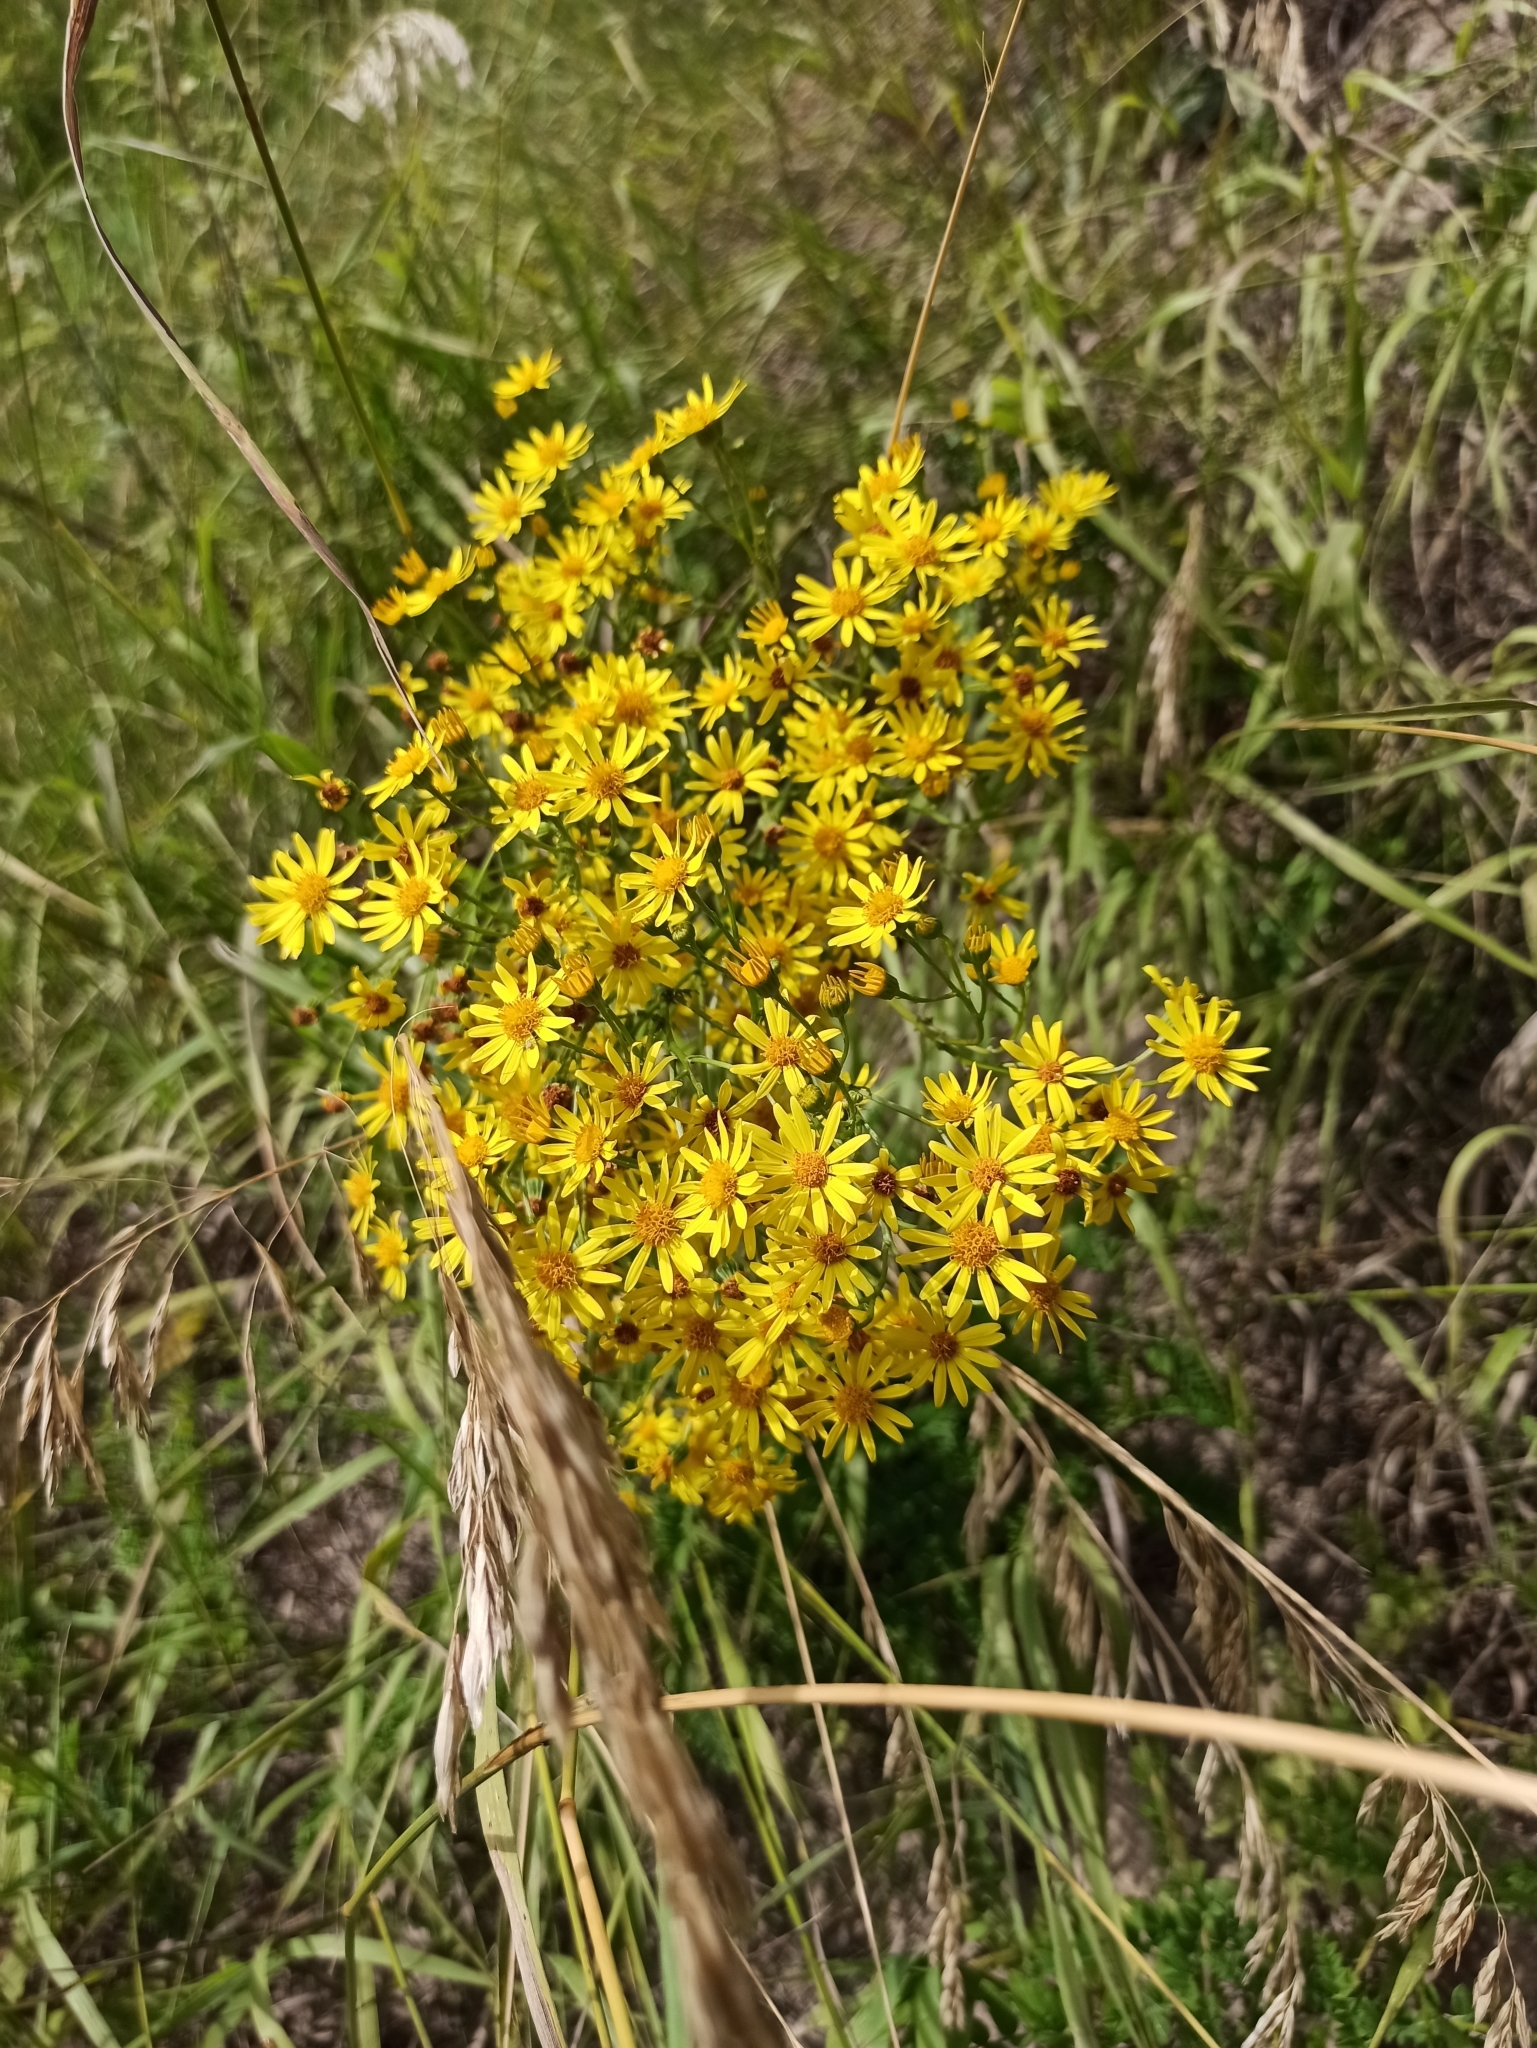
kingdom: Plantae
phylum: Tracheophyta
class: Magnoliopsida
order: Asterales
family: Asteraceae
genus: Jacobaea
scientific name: Jacobaea vulgaris
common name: Stinking willie
